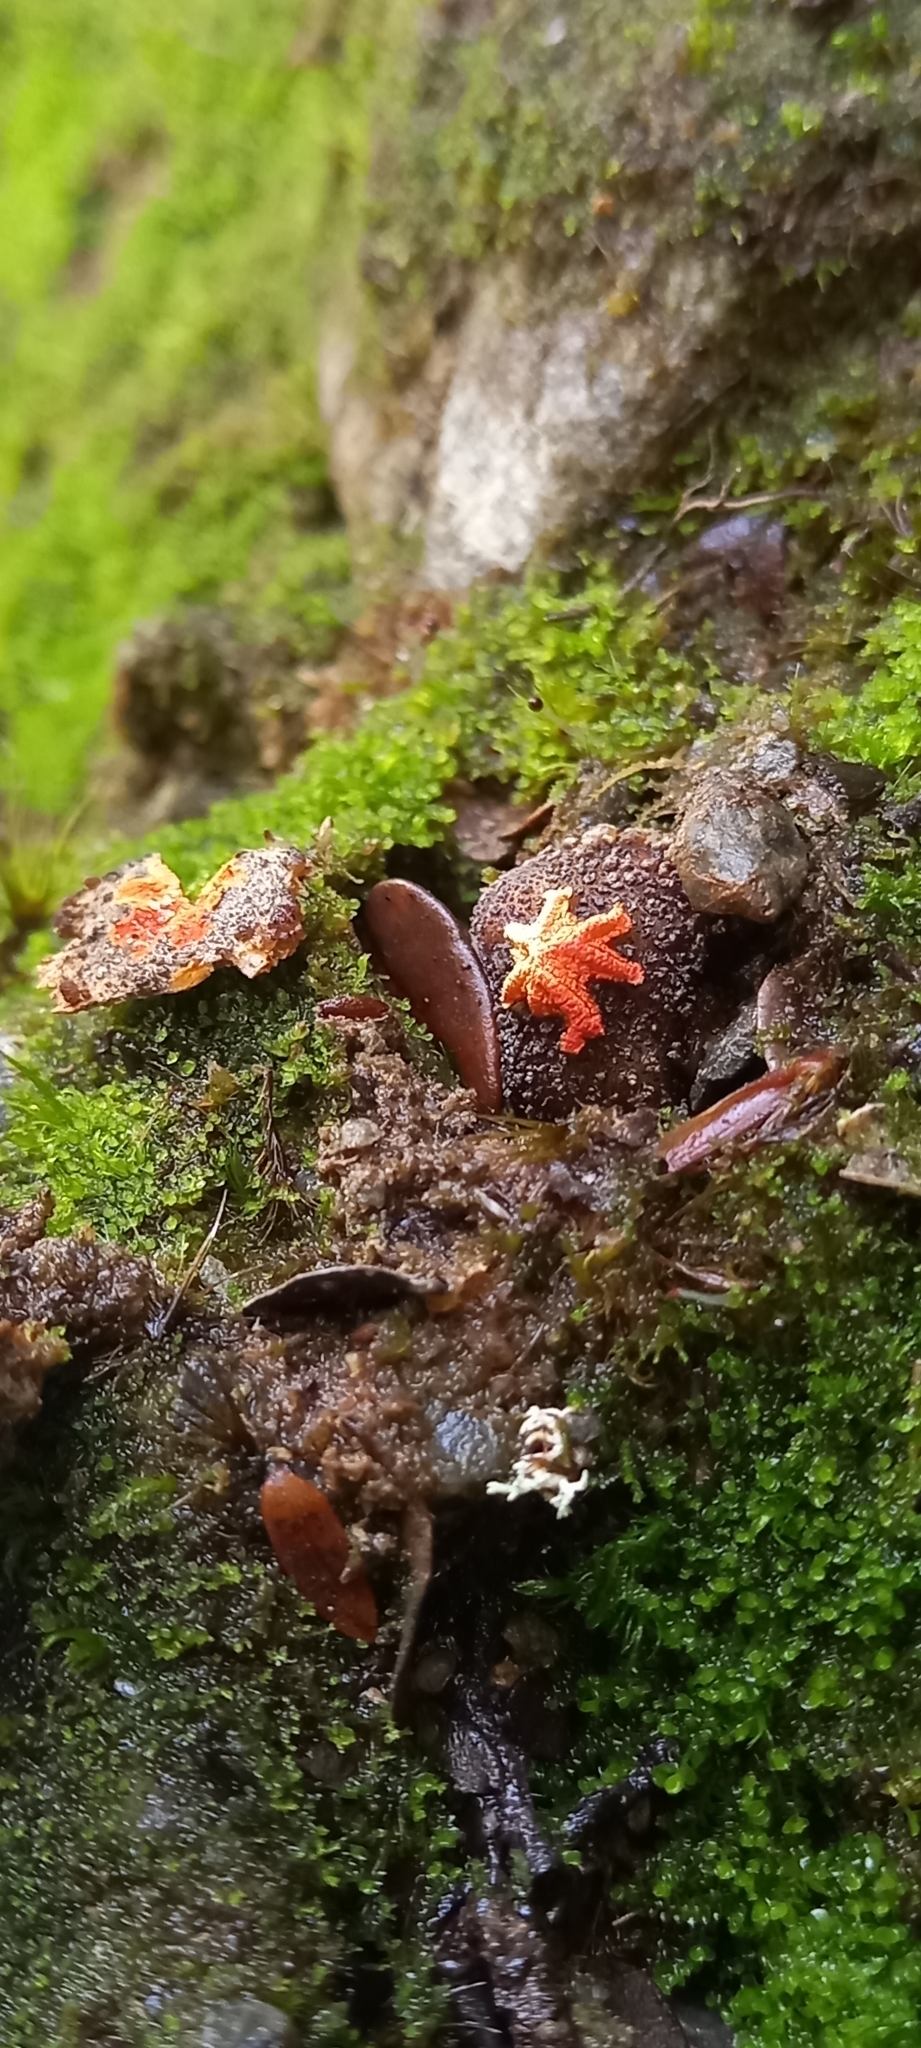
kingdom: Fungi
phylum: Basidiomycota
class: Agaricomycetes
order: Boletales
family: Calostomataceae
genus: Calostoma
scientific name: Calostoma rodwayi
